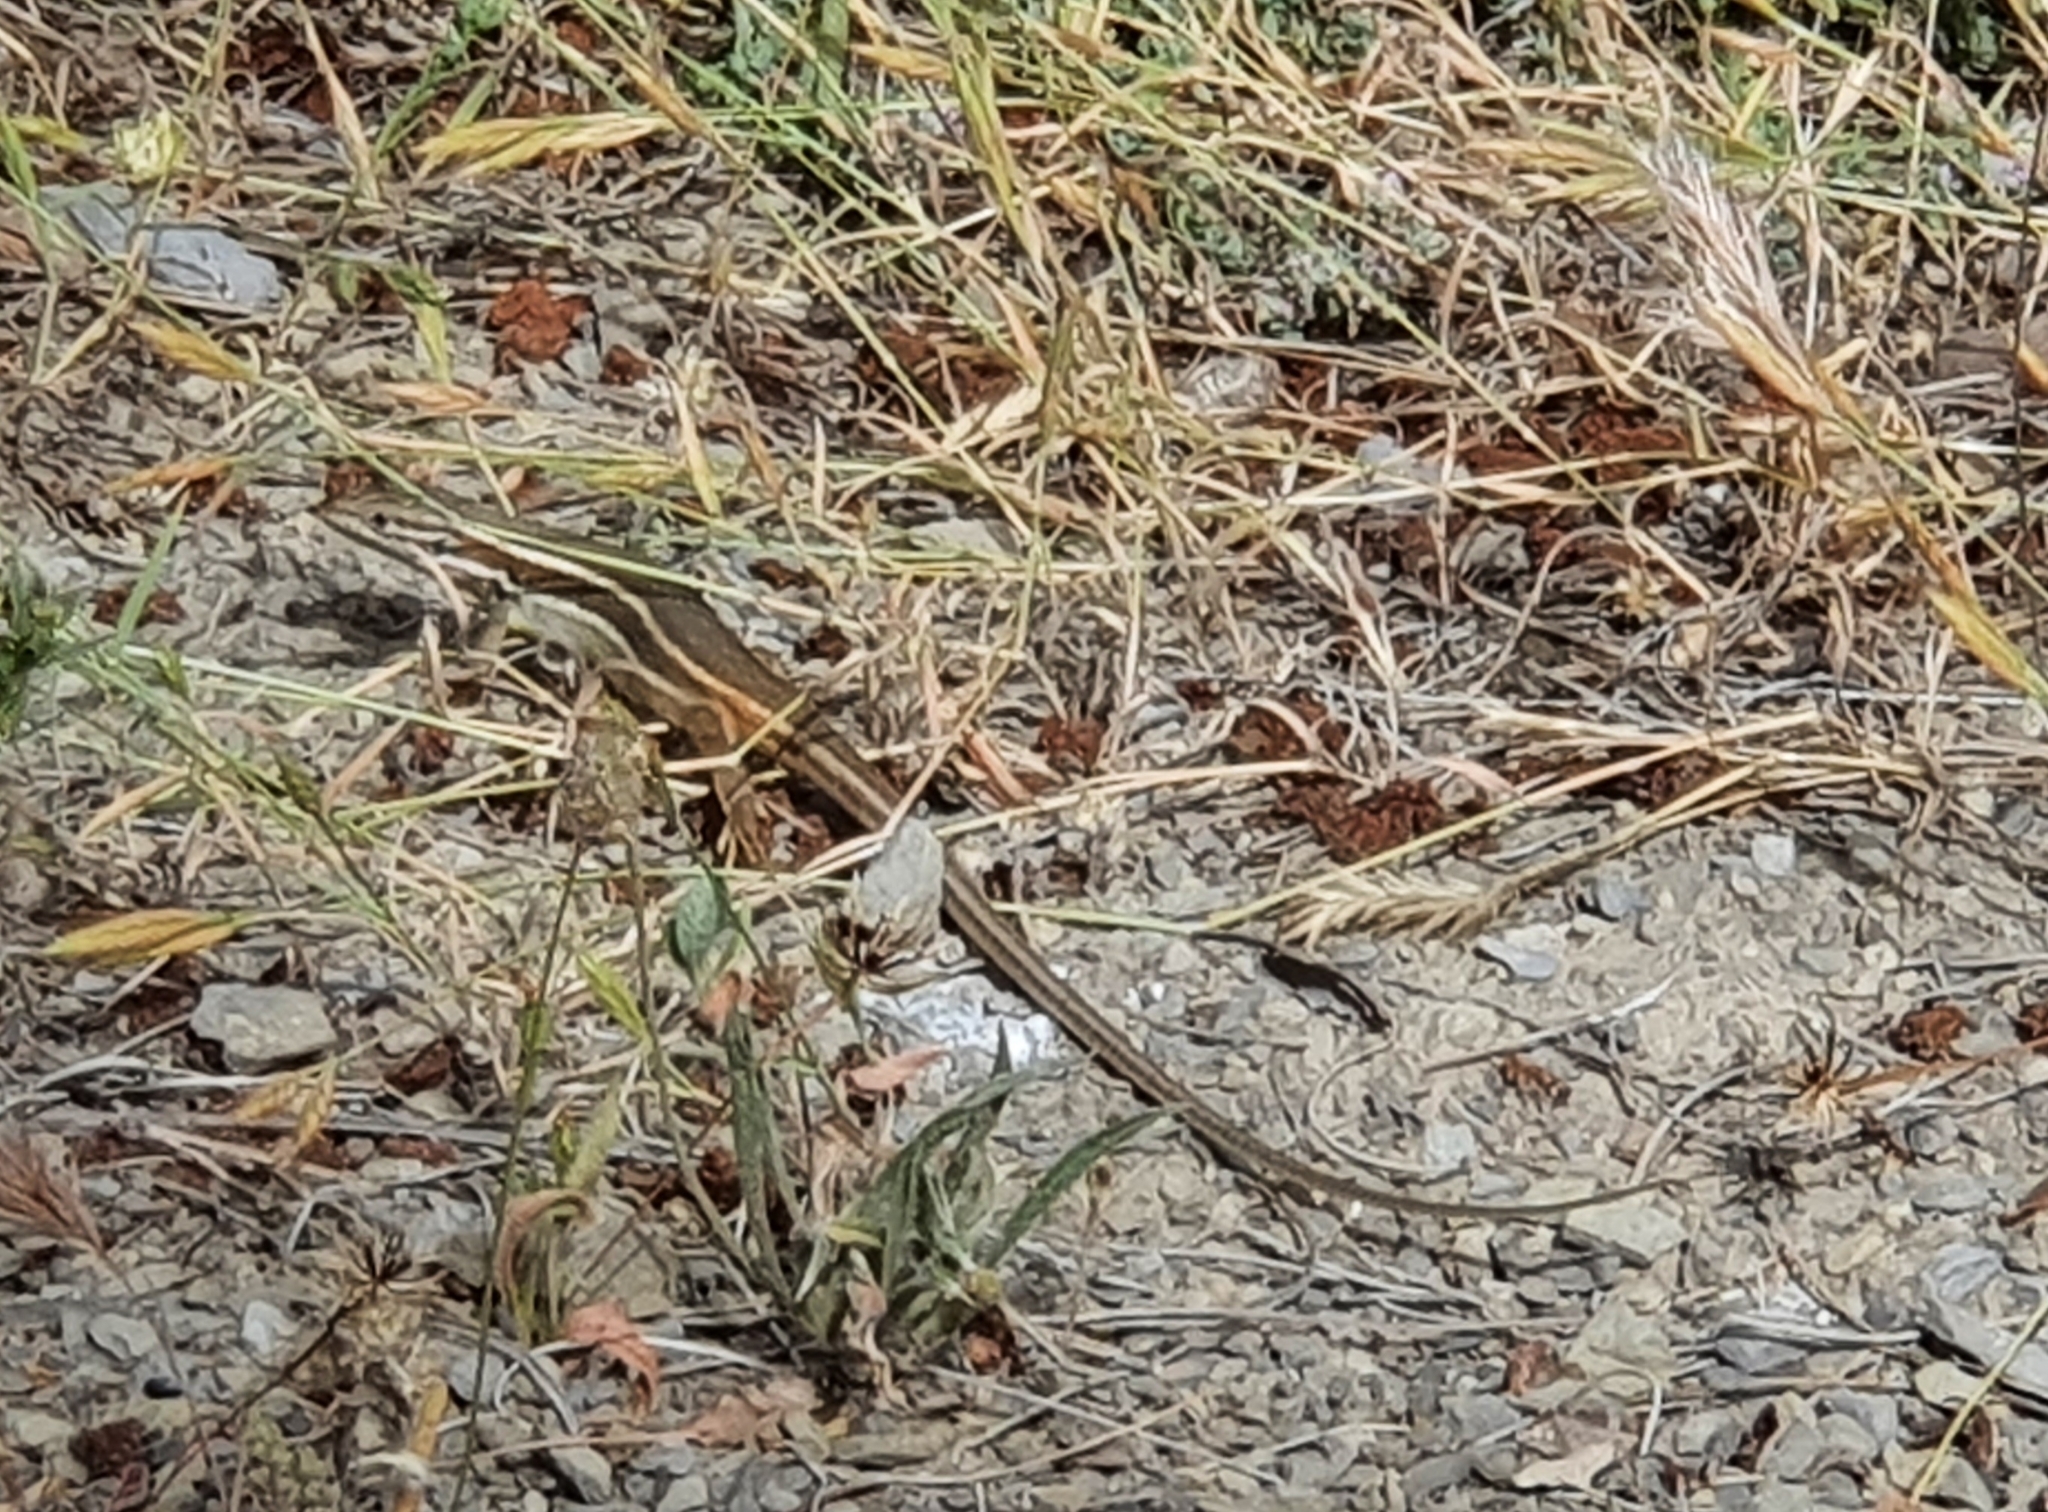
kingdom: Animalia
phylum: Chordata
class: Squamata
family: Lacertidae
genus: Psammodromus
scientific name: Psammodromus algirus
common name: Algerian psammodromus
